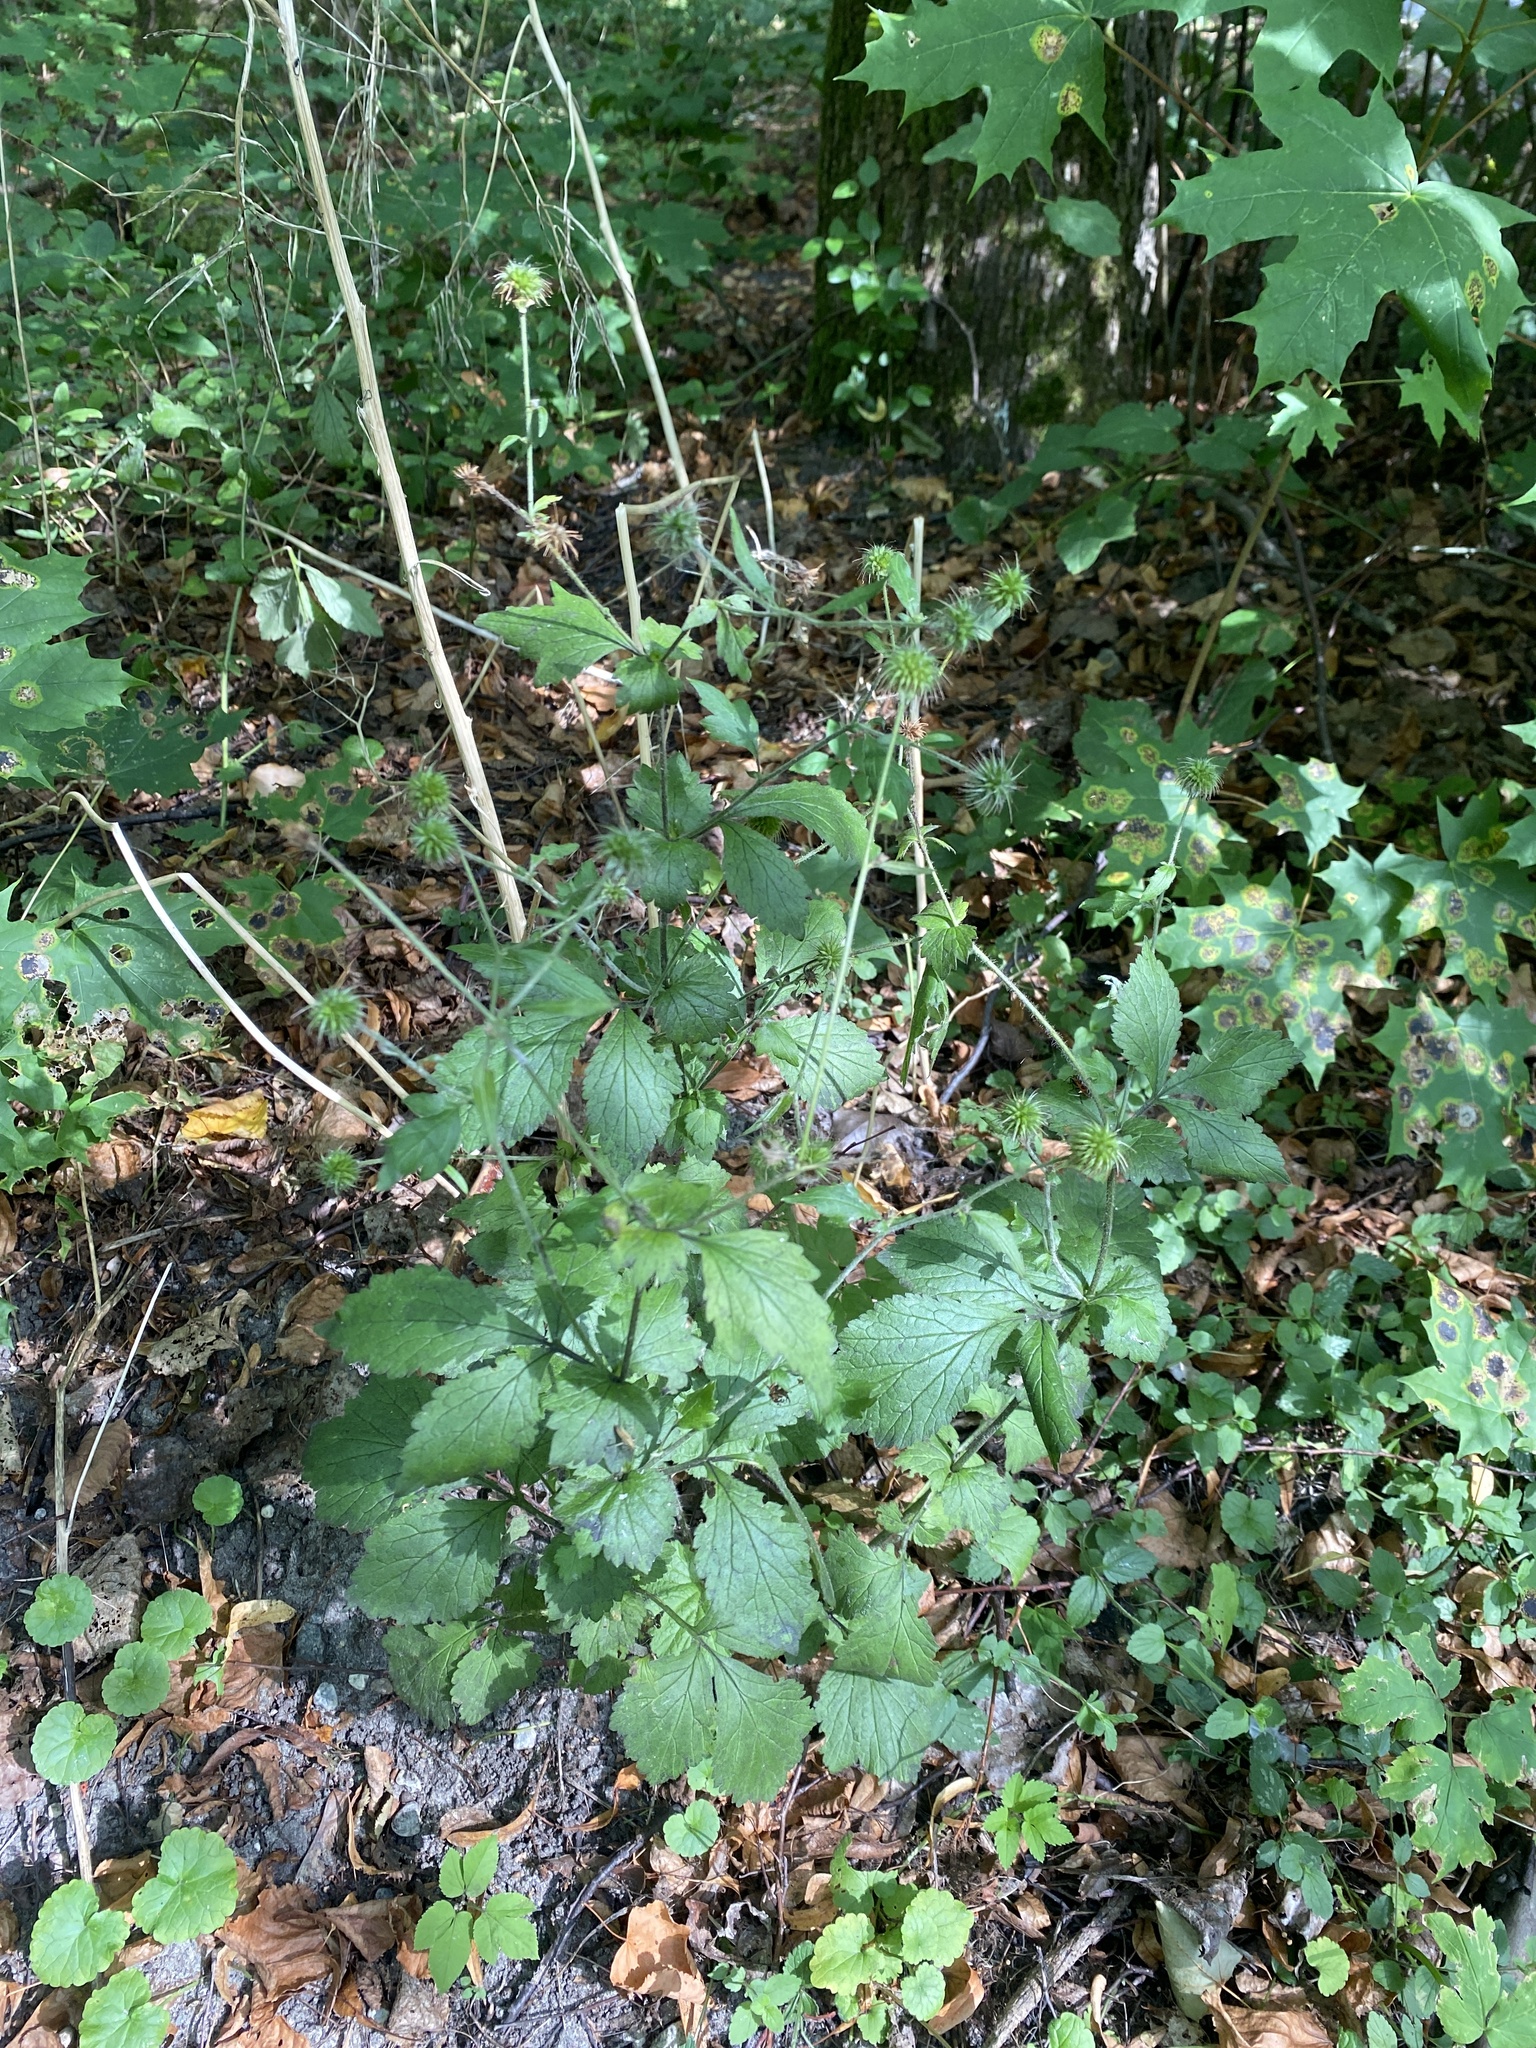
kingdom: Plantae
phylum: Tracheophyta
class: Magnoliopsida
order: Rosales
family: Rosaceae
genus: Geum
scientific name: Geum urbanum
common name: Wood avens
